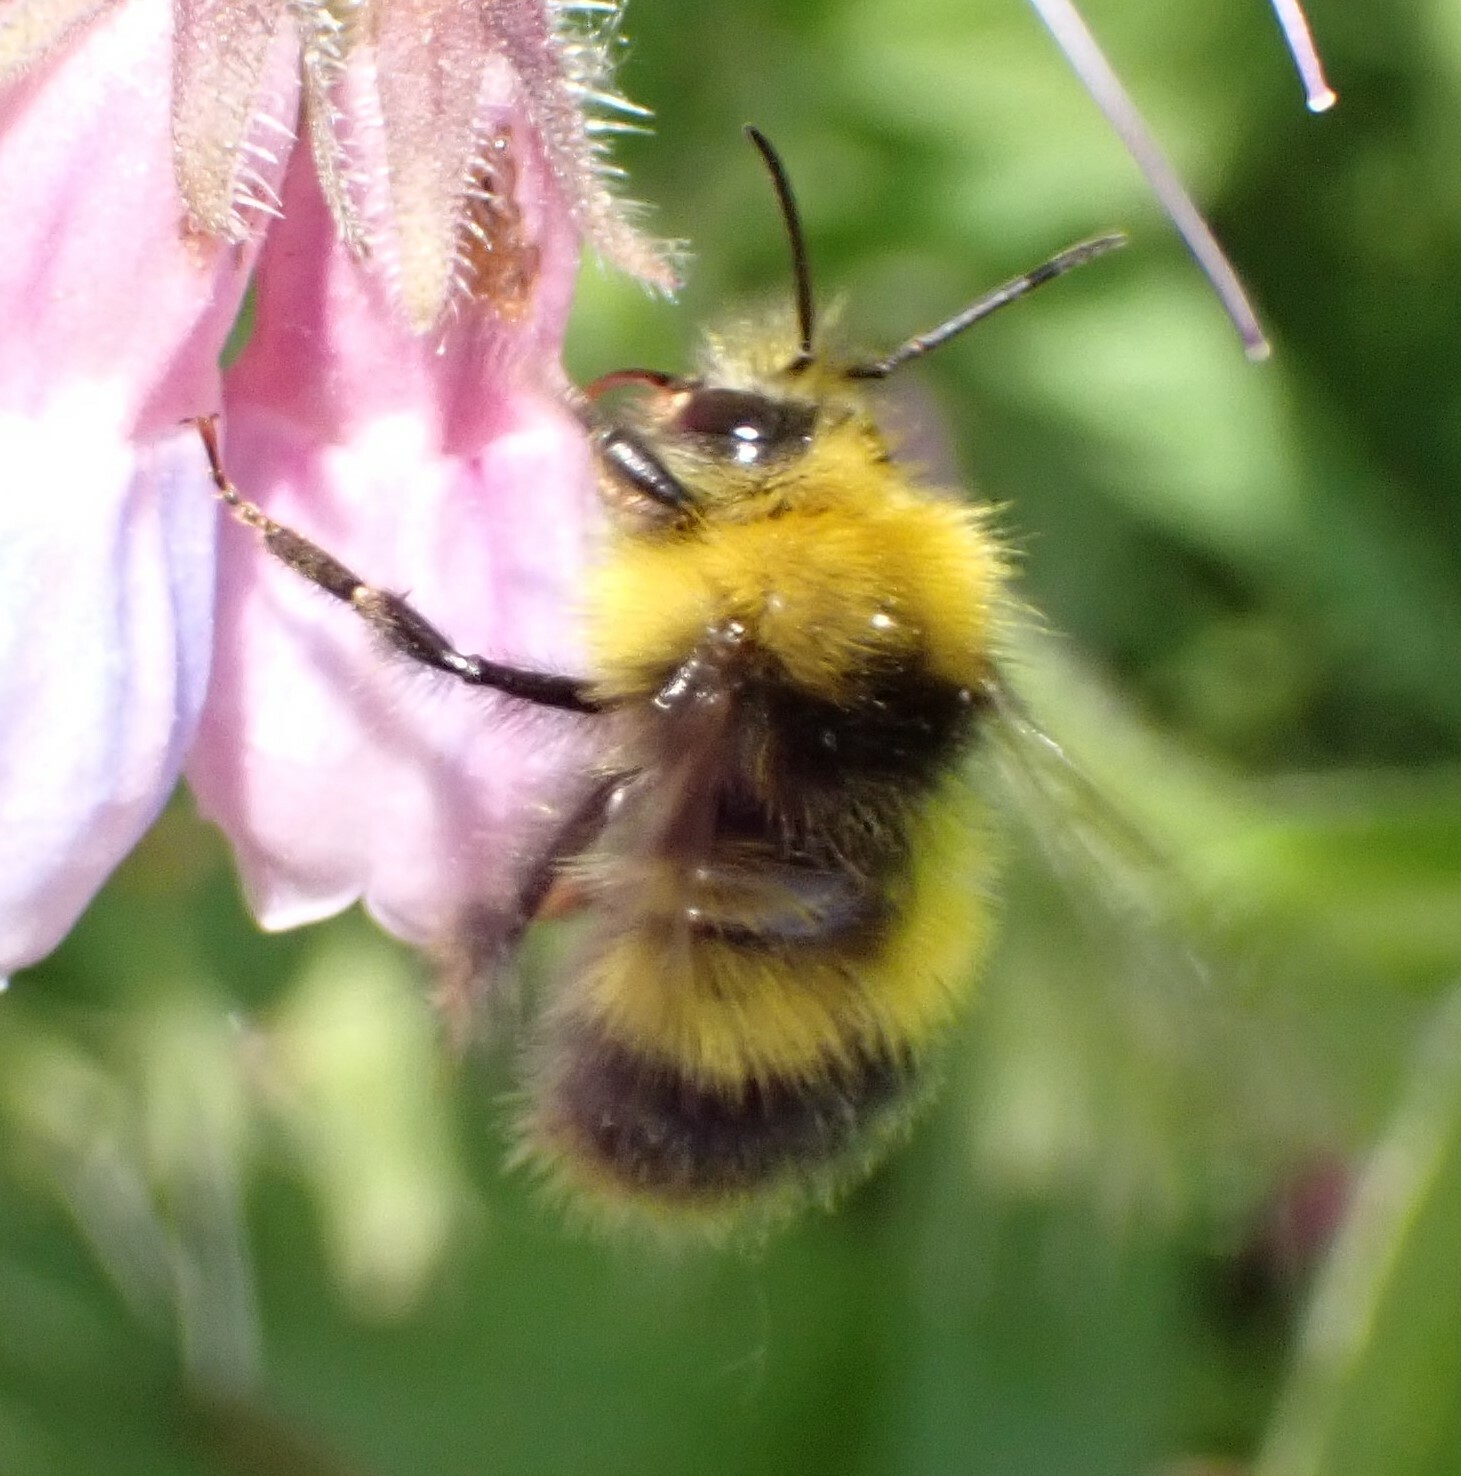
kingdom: Animalia
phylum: Arthropoda
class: Insecta
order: Hymenoptera
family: Apidae
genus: Bombus
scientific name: Bombus pratorum
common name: Early humble-bee
